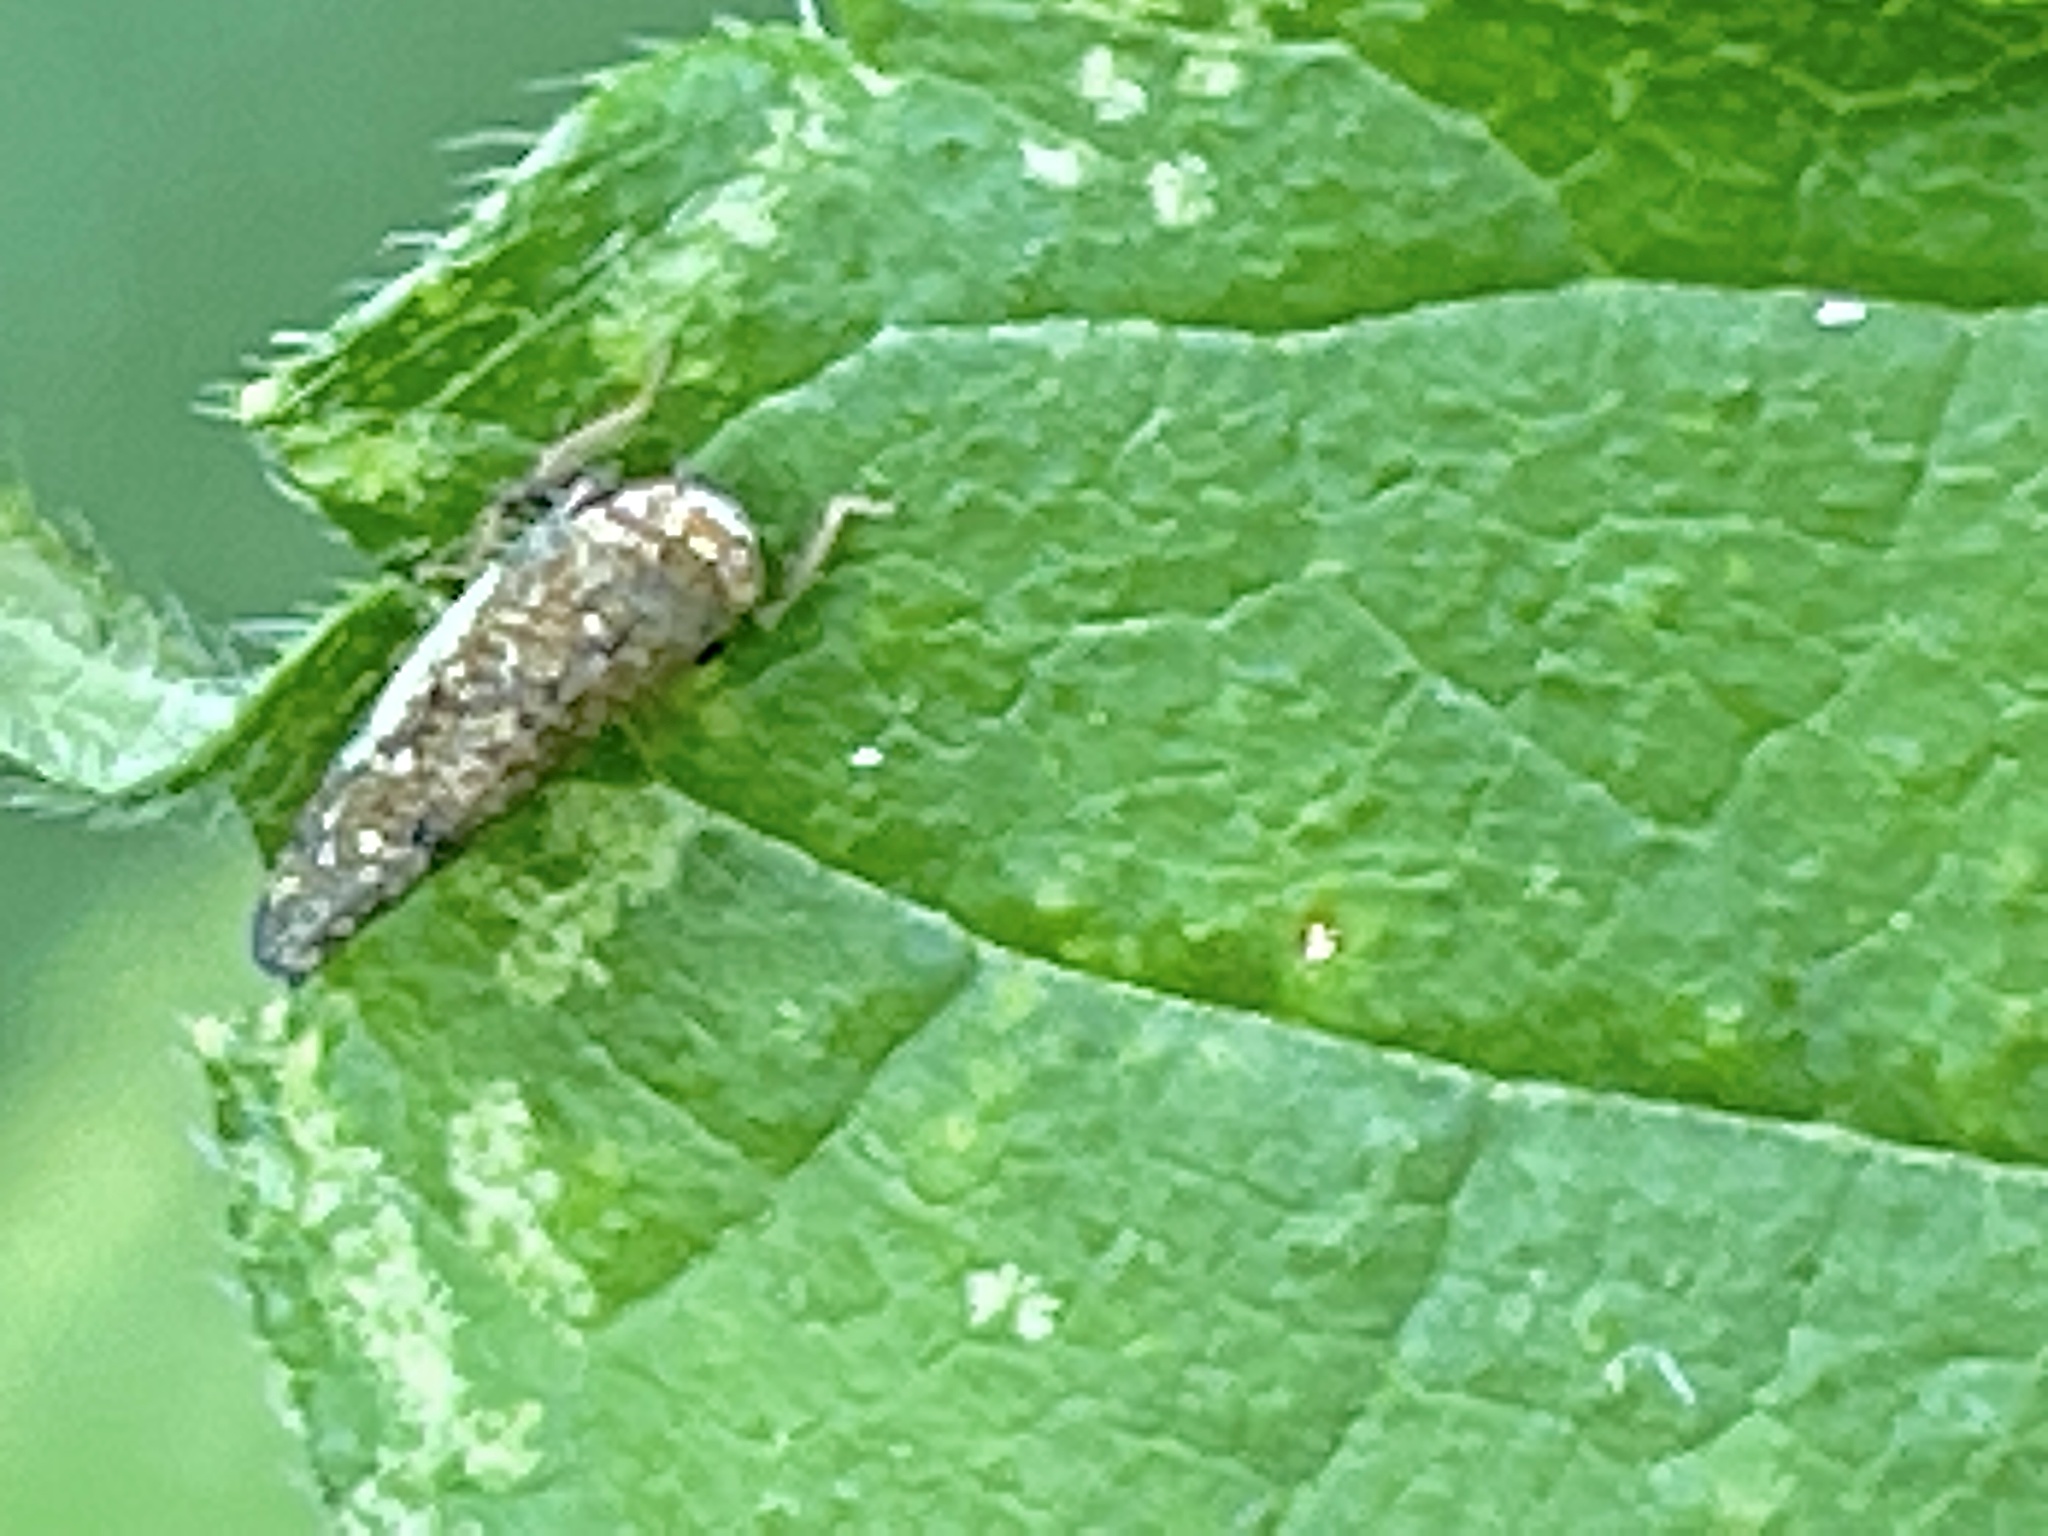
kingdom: Animalia
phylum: Arthropoda
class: Insecta
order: Hemiptera
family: Cicadellidae
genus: Orientus
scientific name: Orientus ishidae
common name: Japanese leafhopper
